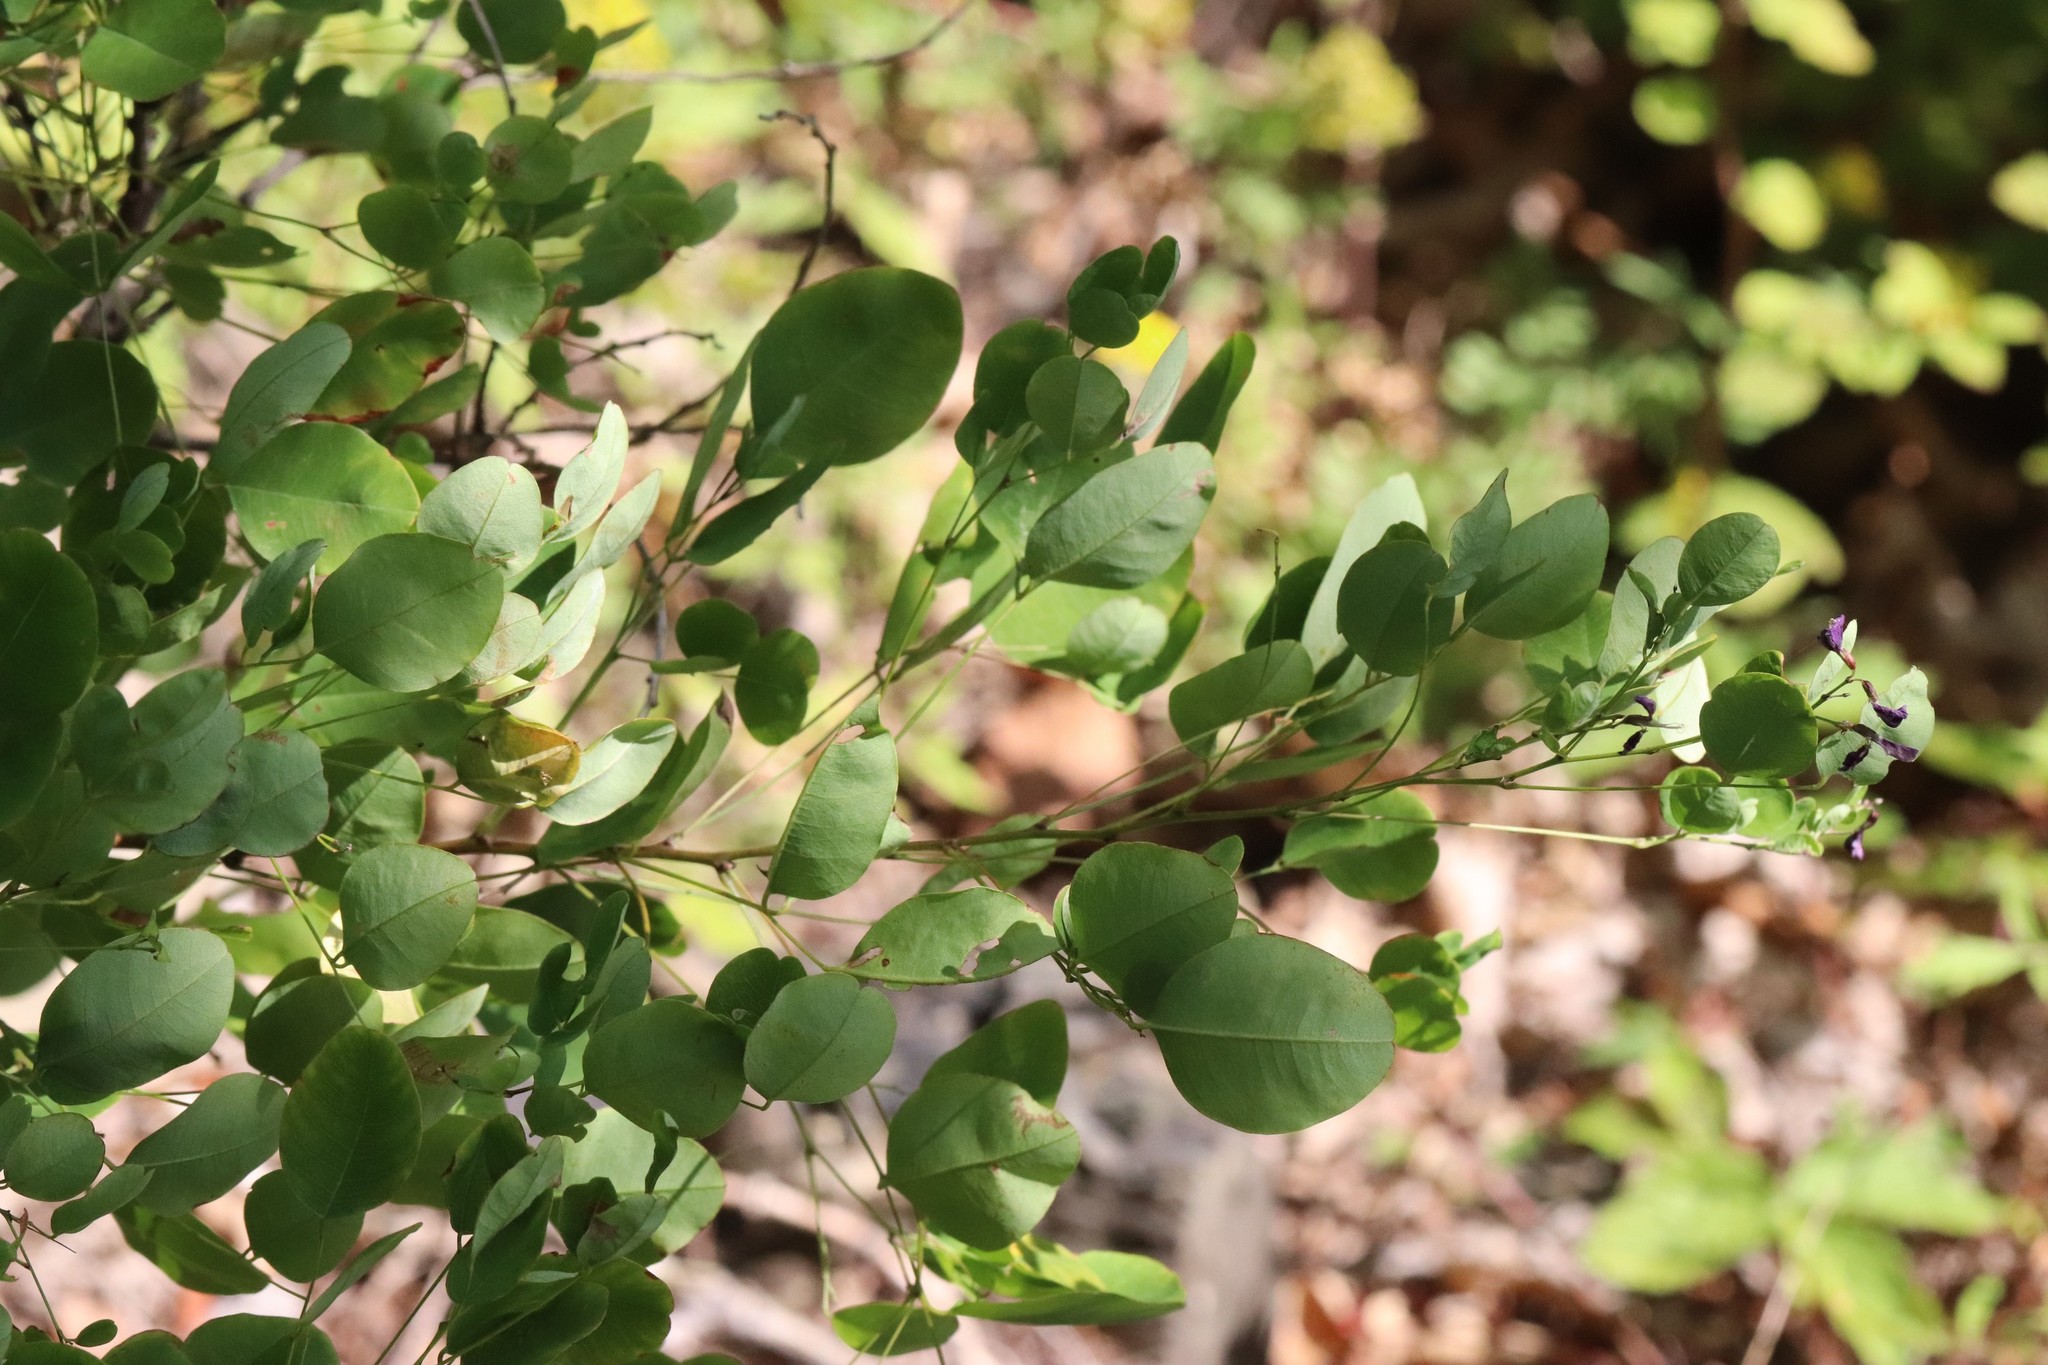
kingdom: Plantae
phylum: Tracheophyta
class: Magnoliopsida
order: Fabales
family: Fabaceae
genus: Lespedeza
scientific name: Lespedeza bicolor
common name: Shrub lespedeza
